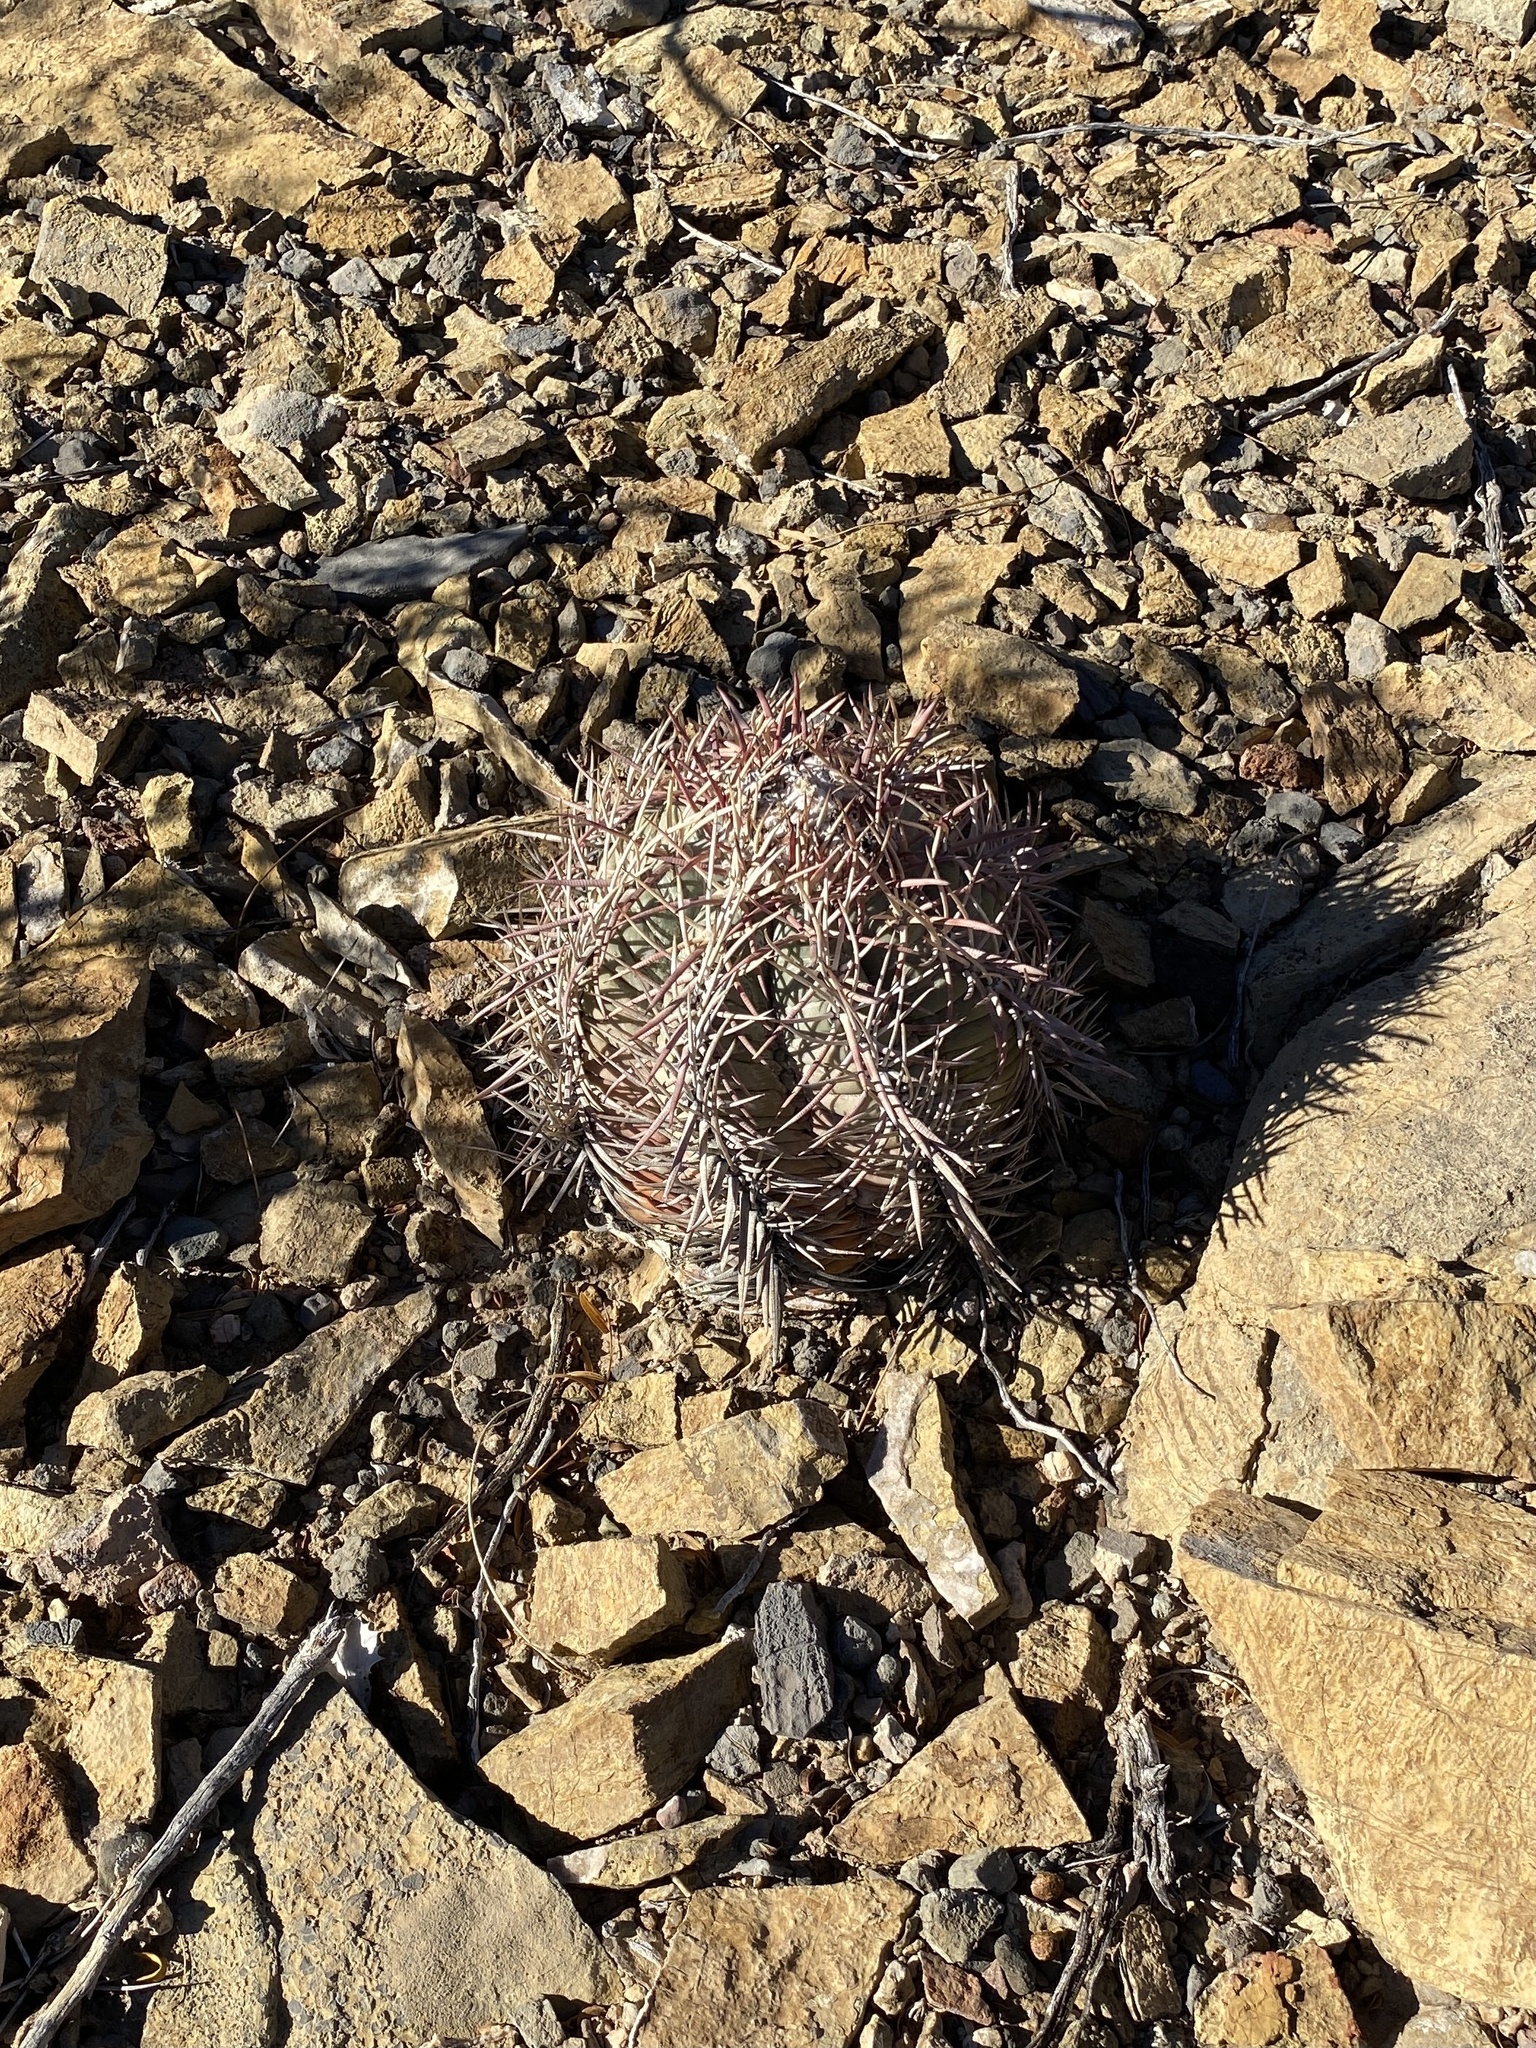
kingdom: Plantae
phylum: Tracheophyta
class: Magnoliopsida
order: Caryophyllales
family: Cactaceae
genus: Echinocactus
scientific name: Echinocactus horizonthalonius
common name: Devilshead
